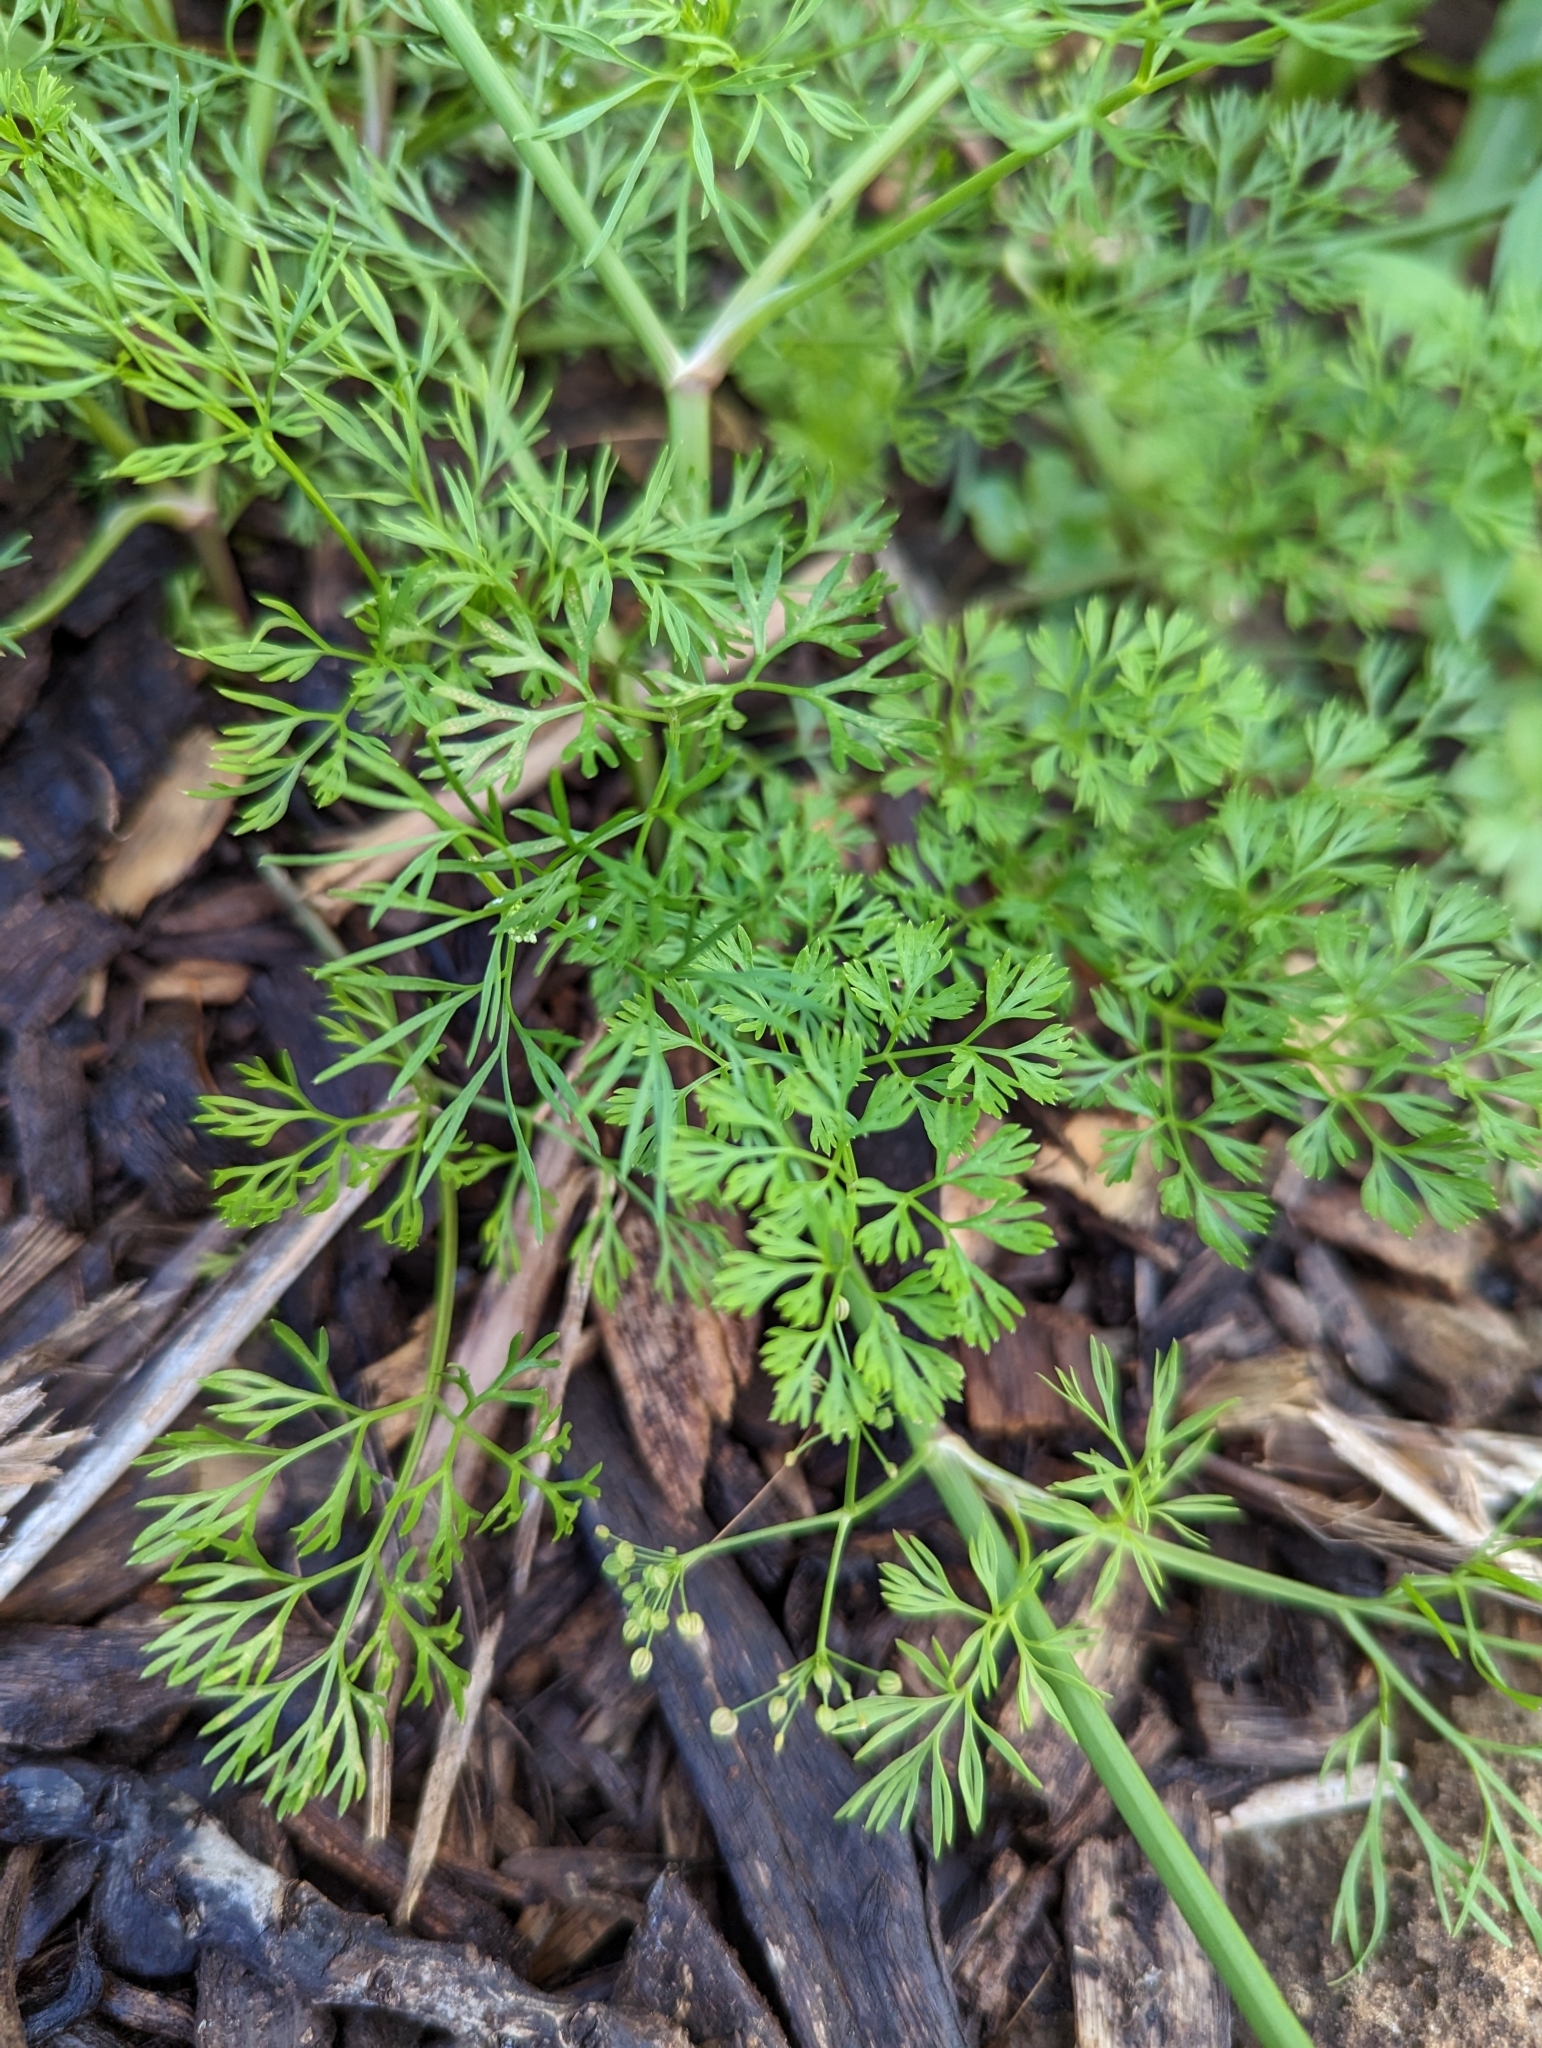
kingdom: Plantae
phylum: Tracheophyta
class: Magnoliopsida
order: Apiales
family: Apiaceae
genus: Cyclospermum
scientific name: Cyclospermum leptophyllum
